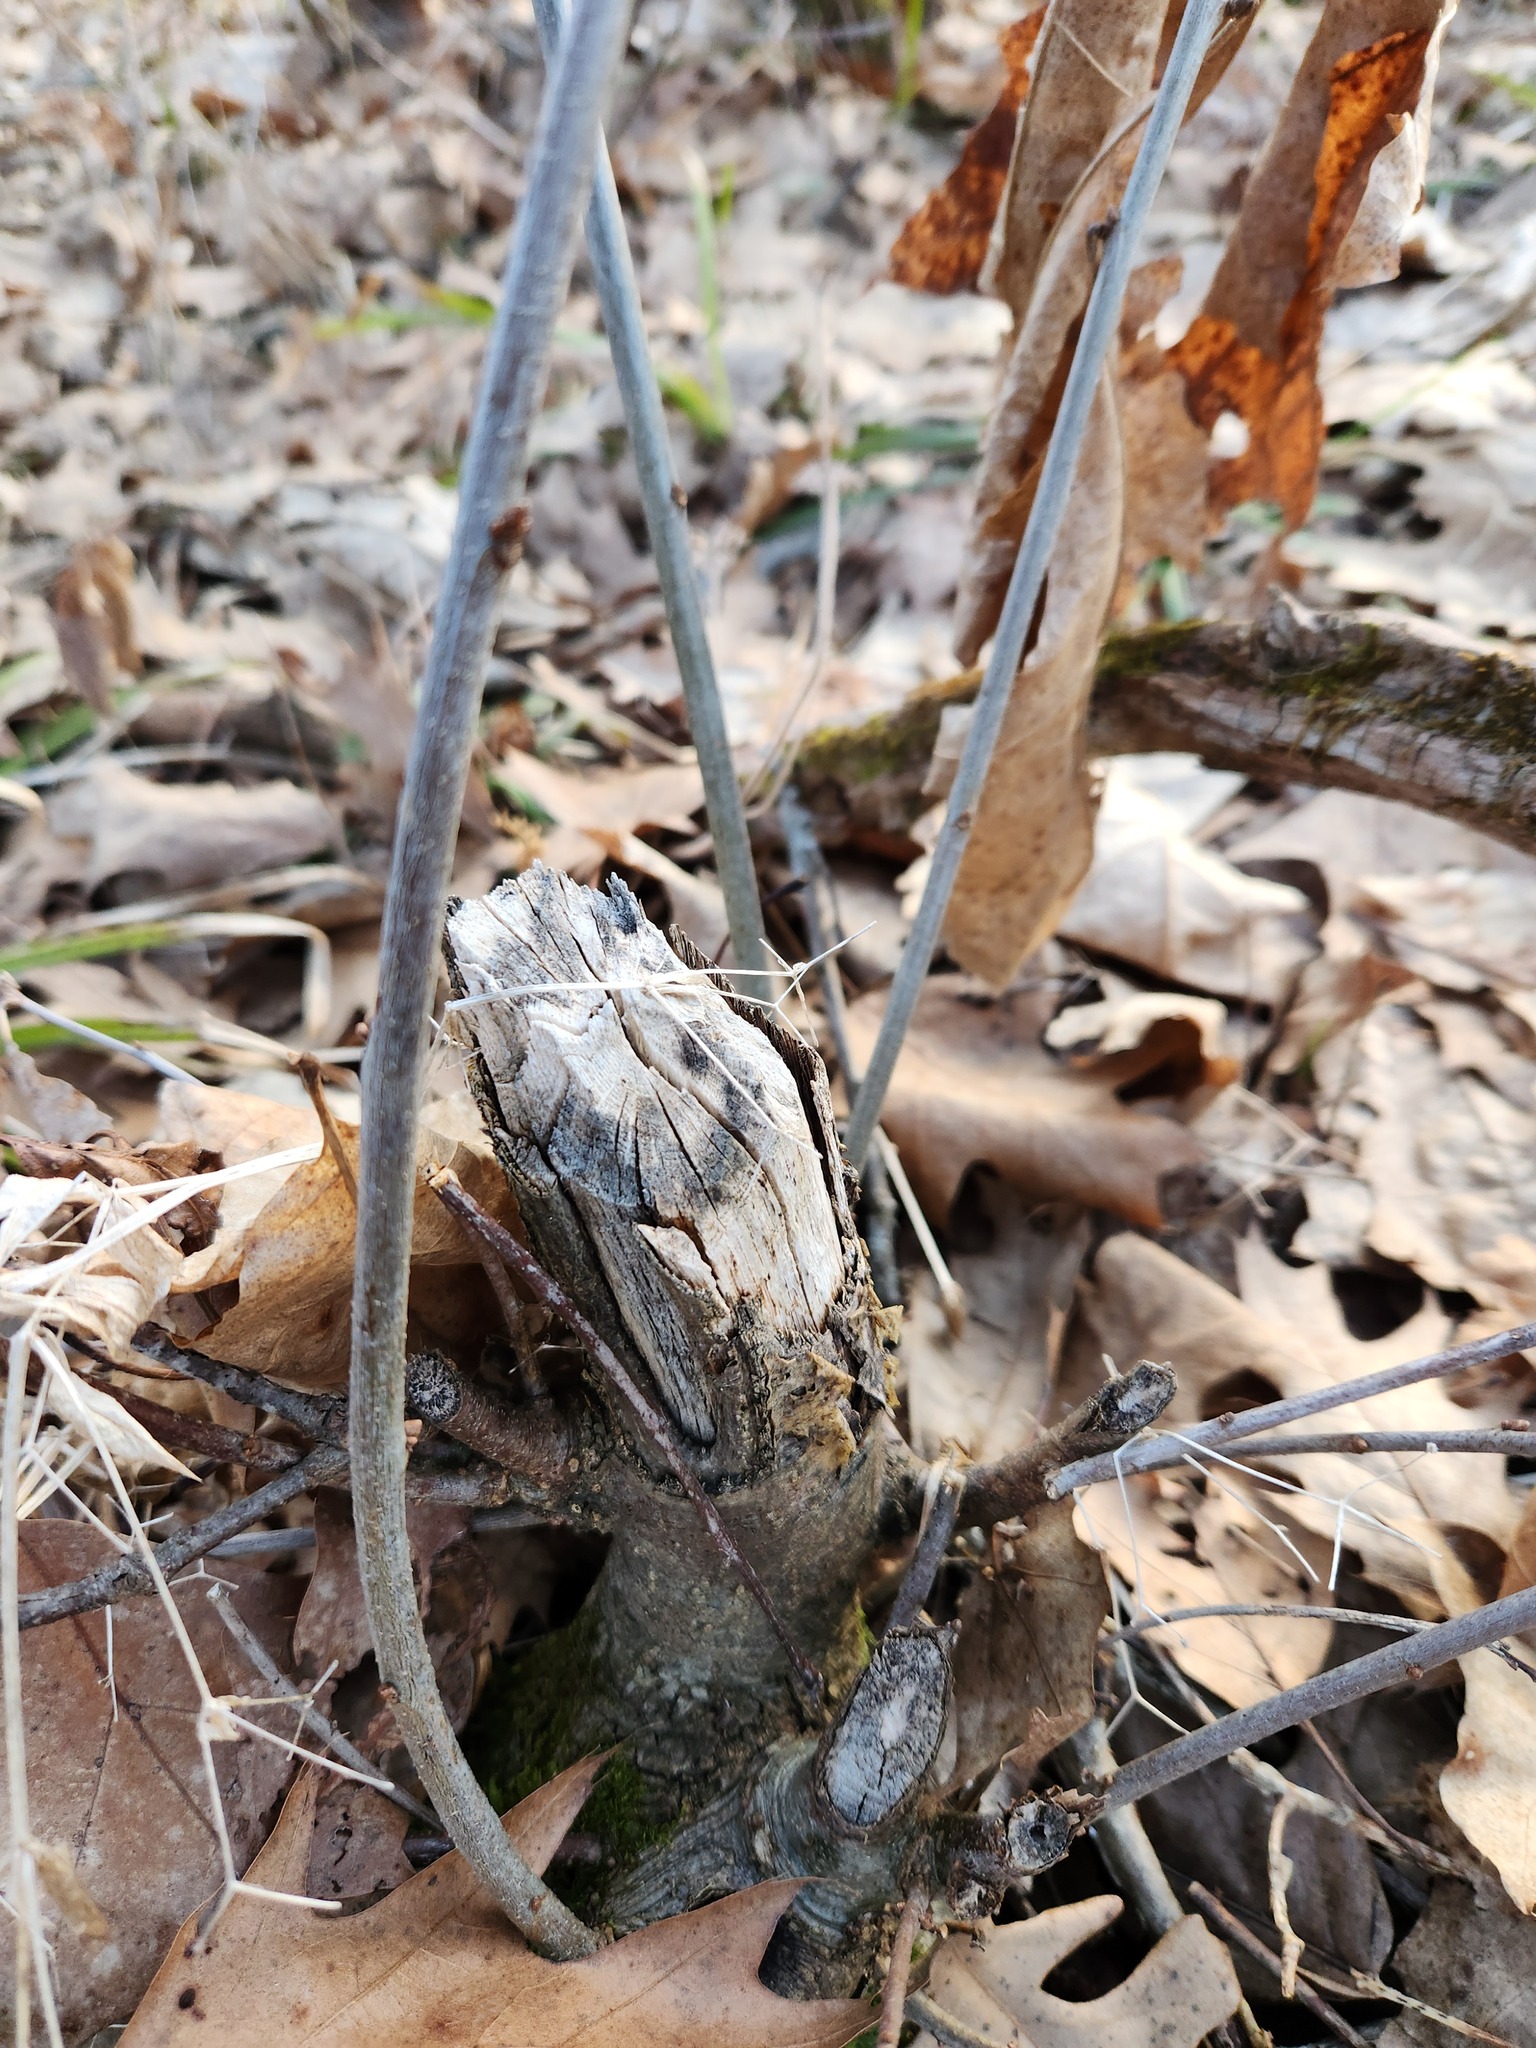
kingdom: Animalia
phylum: Chordata
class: Mammalia
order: Rodentia
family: Castoridae
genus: Castor
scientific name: Castor canadensis
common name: American beaver
